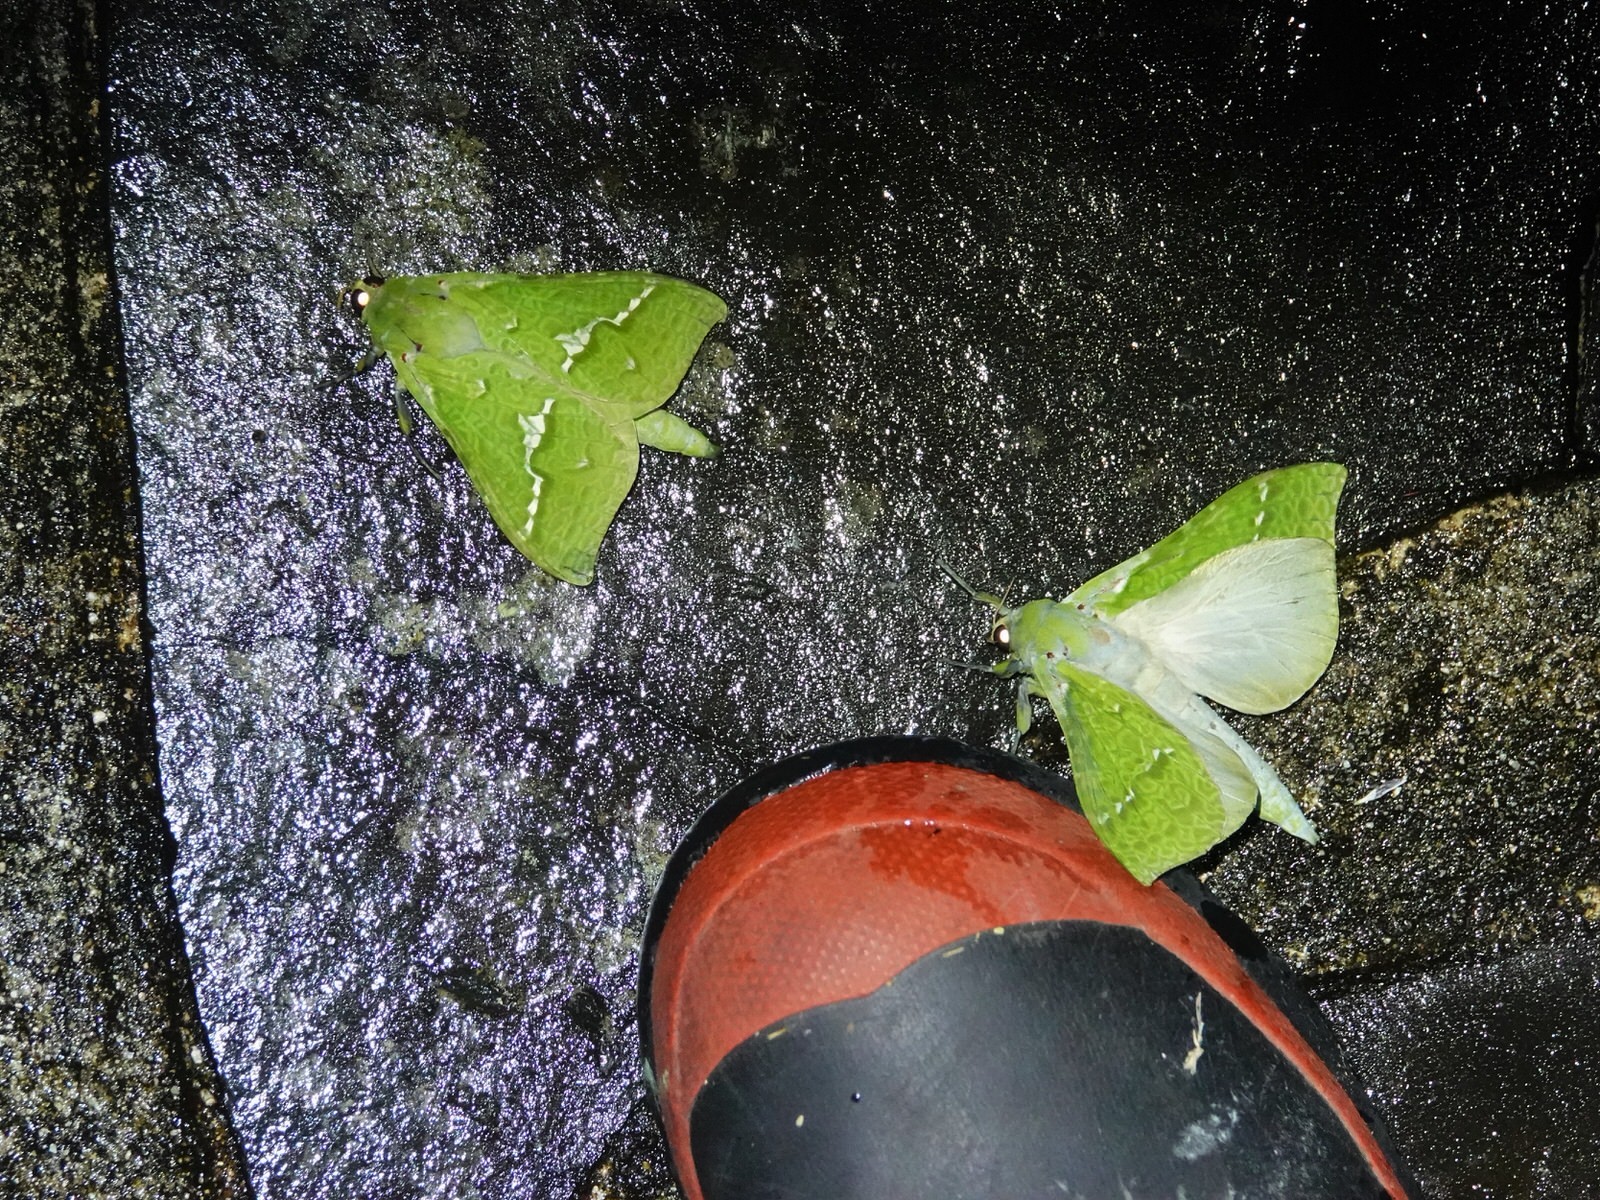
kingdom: Animalia
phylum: Arthropoda
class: Insecta
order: Lepidoptera
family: Hepialidae
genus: Aenetus
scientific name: Aenetus virescens
